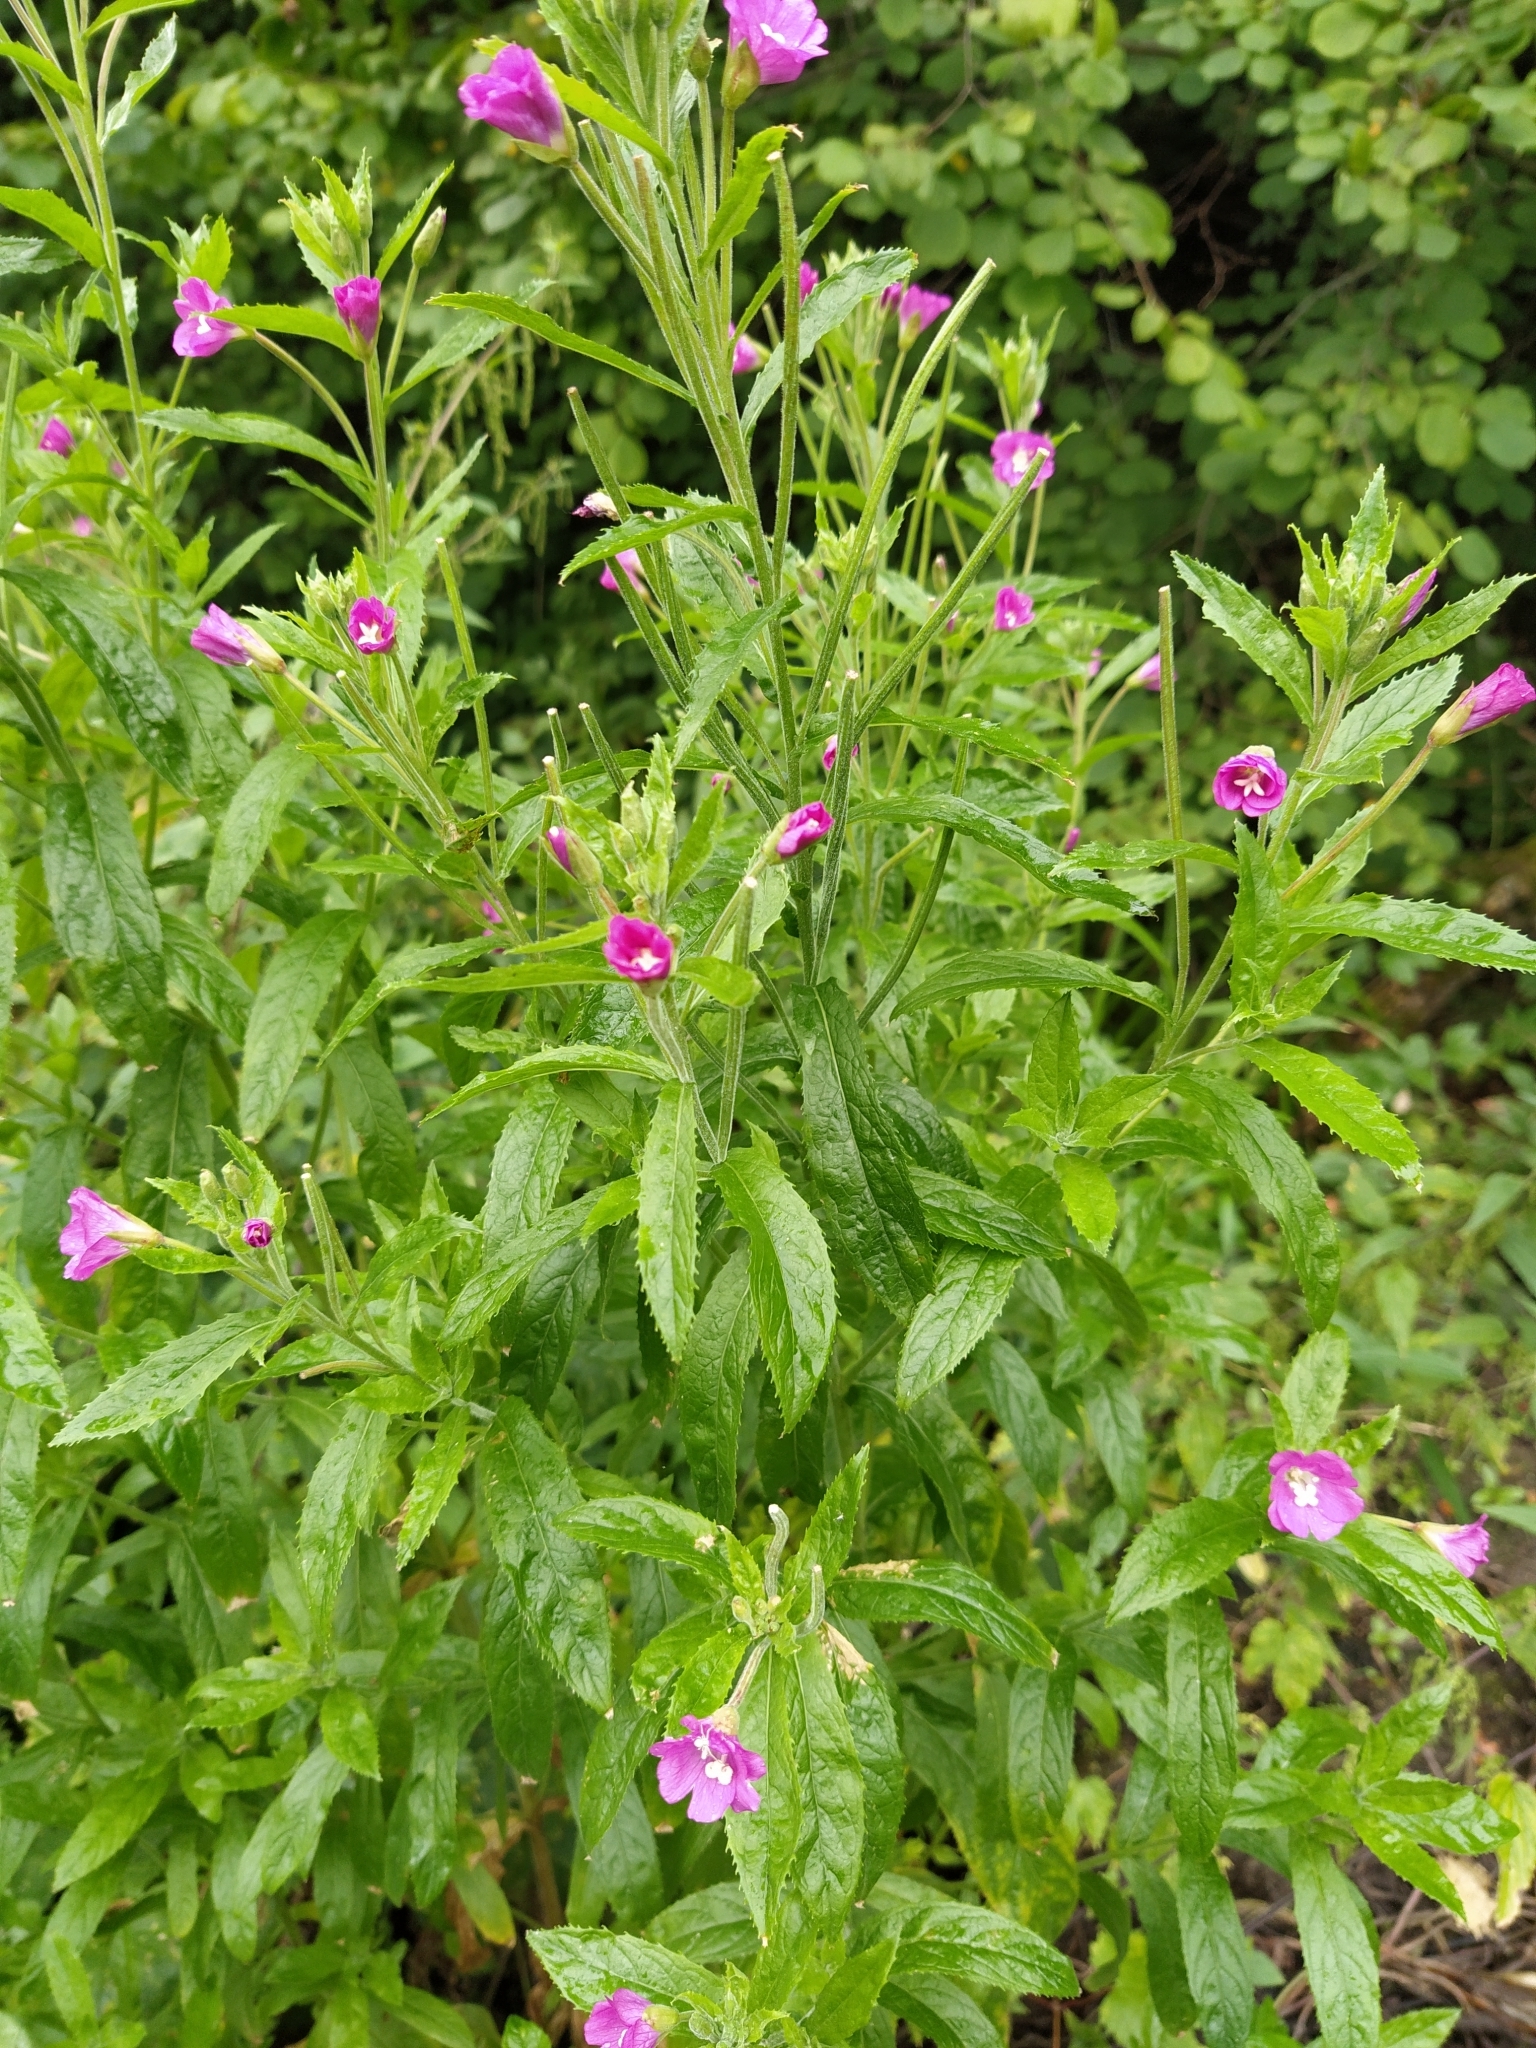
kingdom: Plantae
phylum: Tracheophyta
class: Magnoliopsida
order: Myrtales
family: Onagraceae
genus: Epilobium
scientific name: Epilobium hirsutum
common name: Great willowherb
